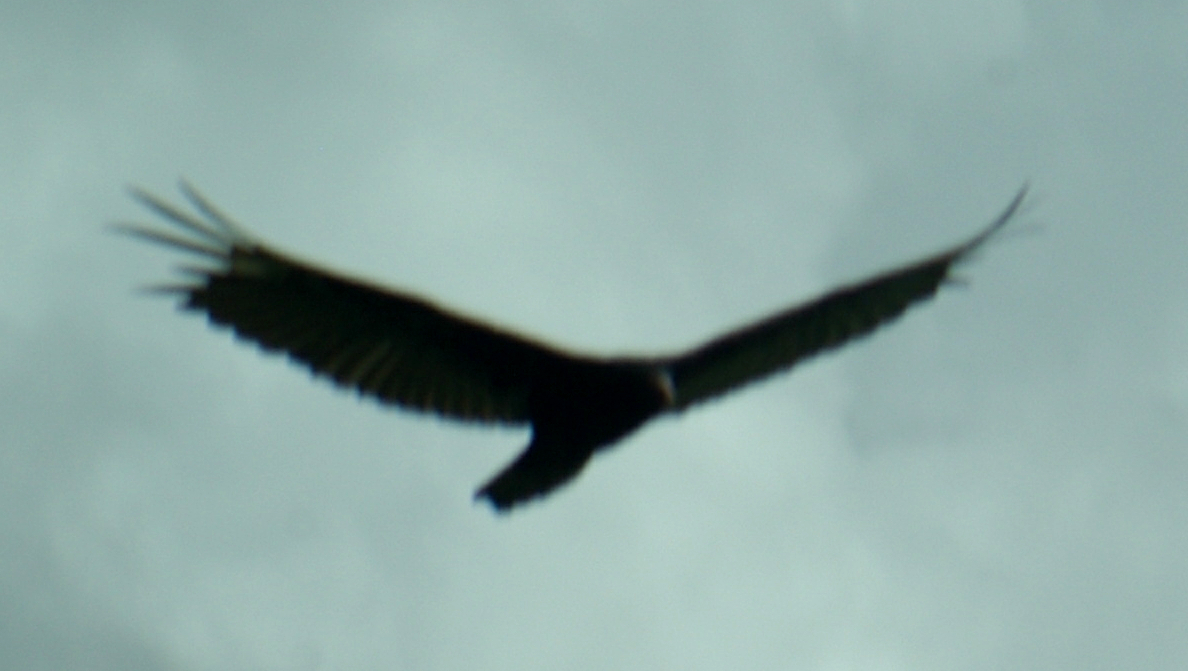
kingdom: Animalia
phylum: Chordata
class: Aves
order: Accipitriformes
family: Cathartidae
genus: Cathartes
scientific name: Cathartes aura
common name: Turkey vulture
